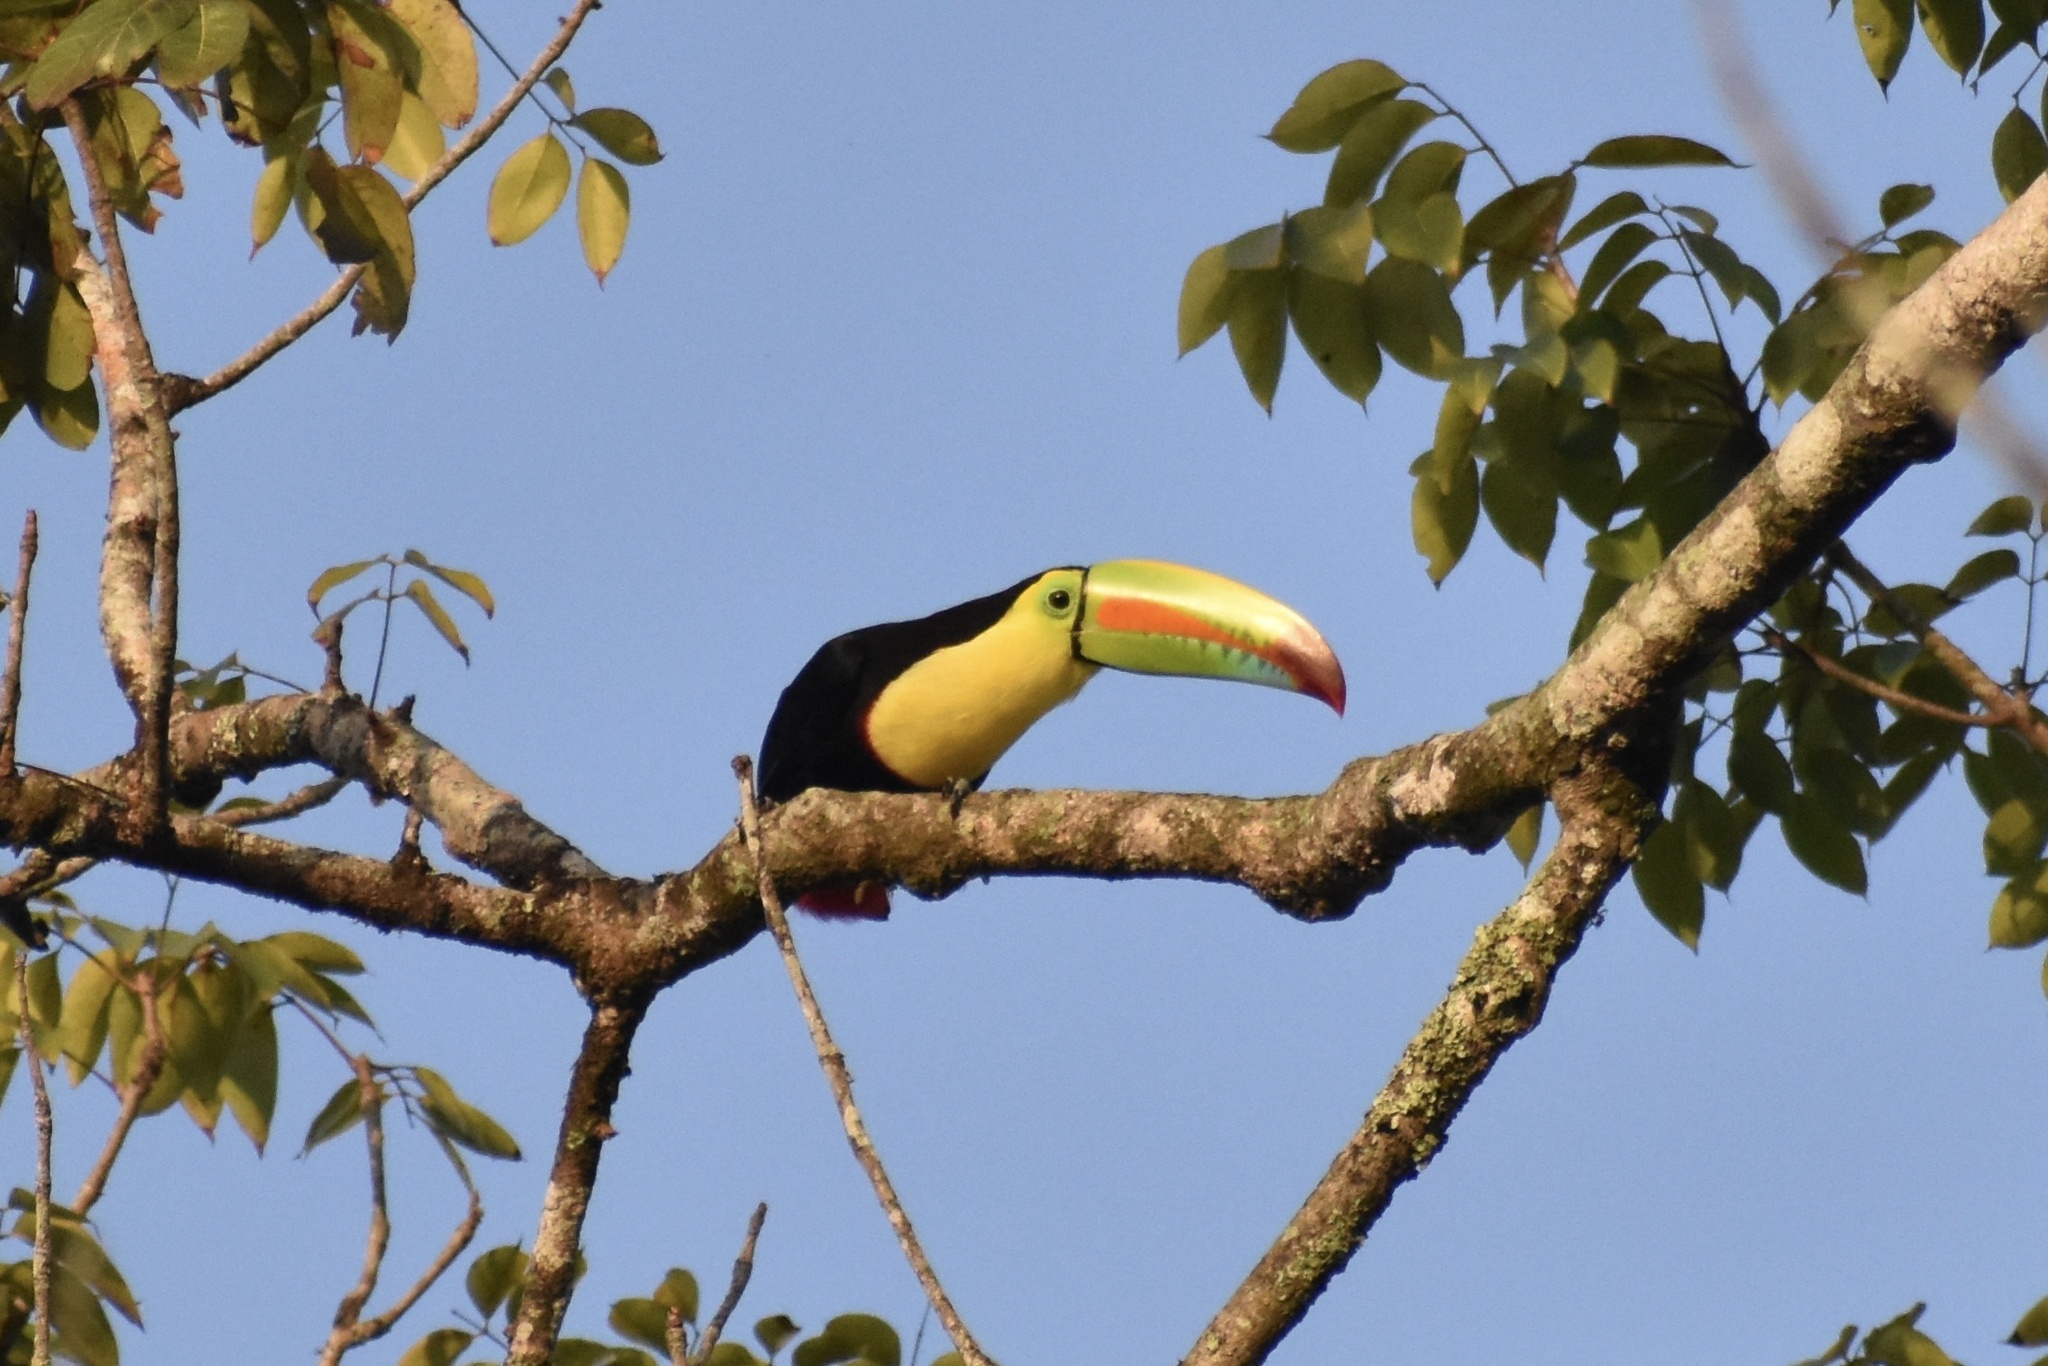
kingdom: Animalia
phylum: Chordata
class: Aves
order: Piciformes
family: Ramphastidae
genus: Ramphastos
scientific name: Ramphastos sulfuratus
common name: Keel-billed toucan
